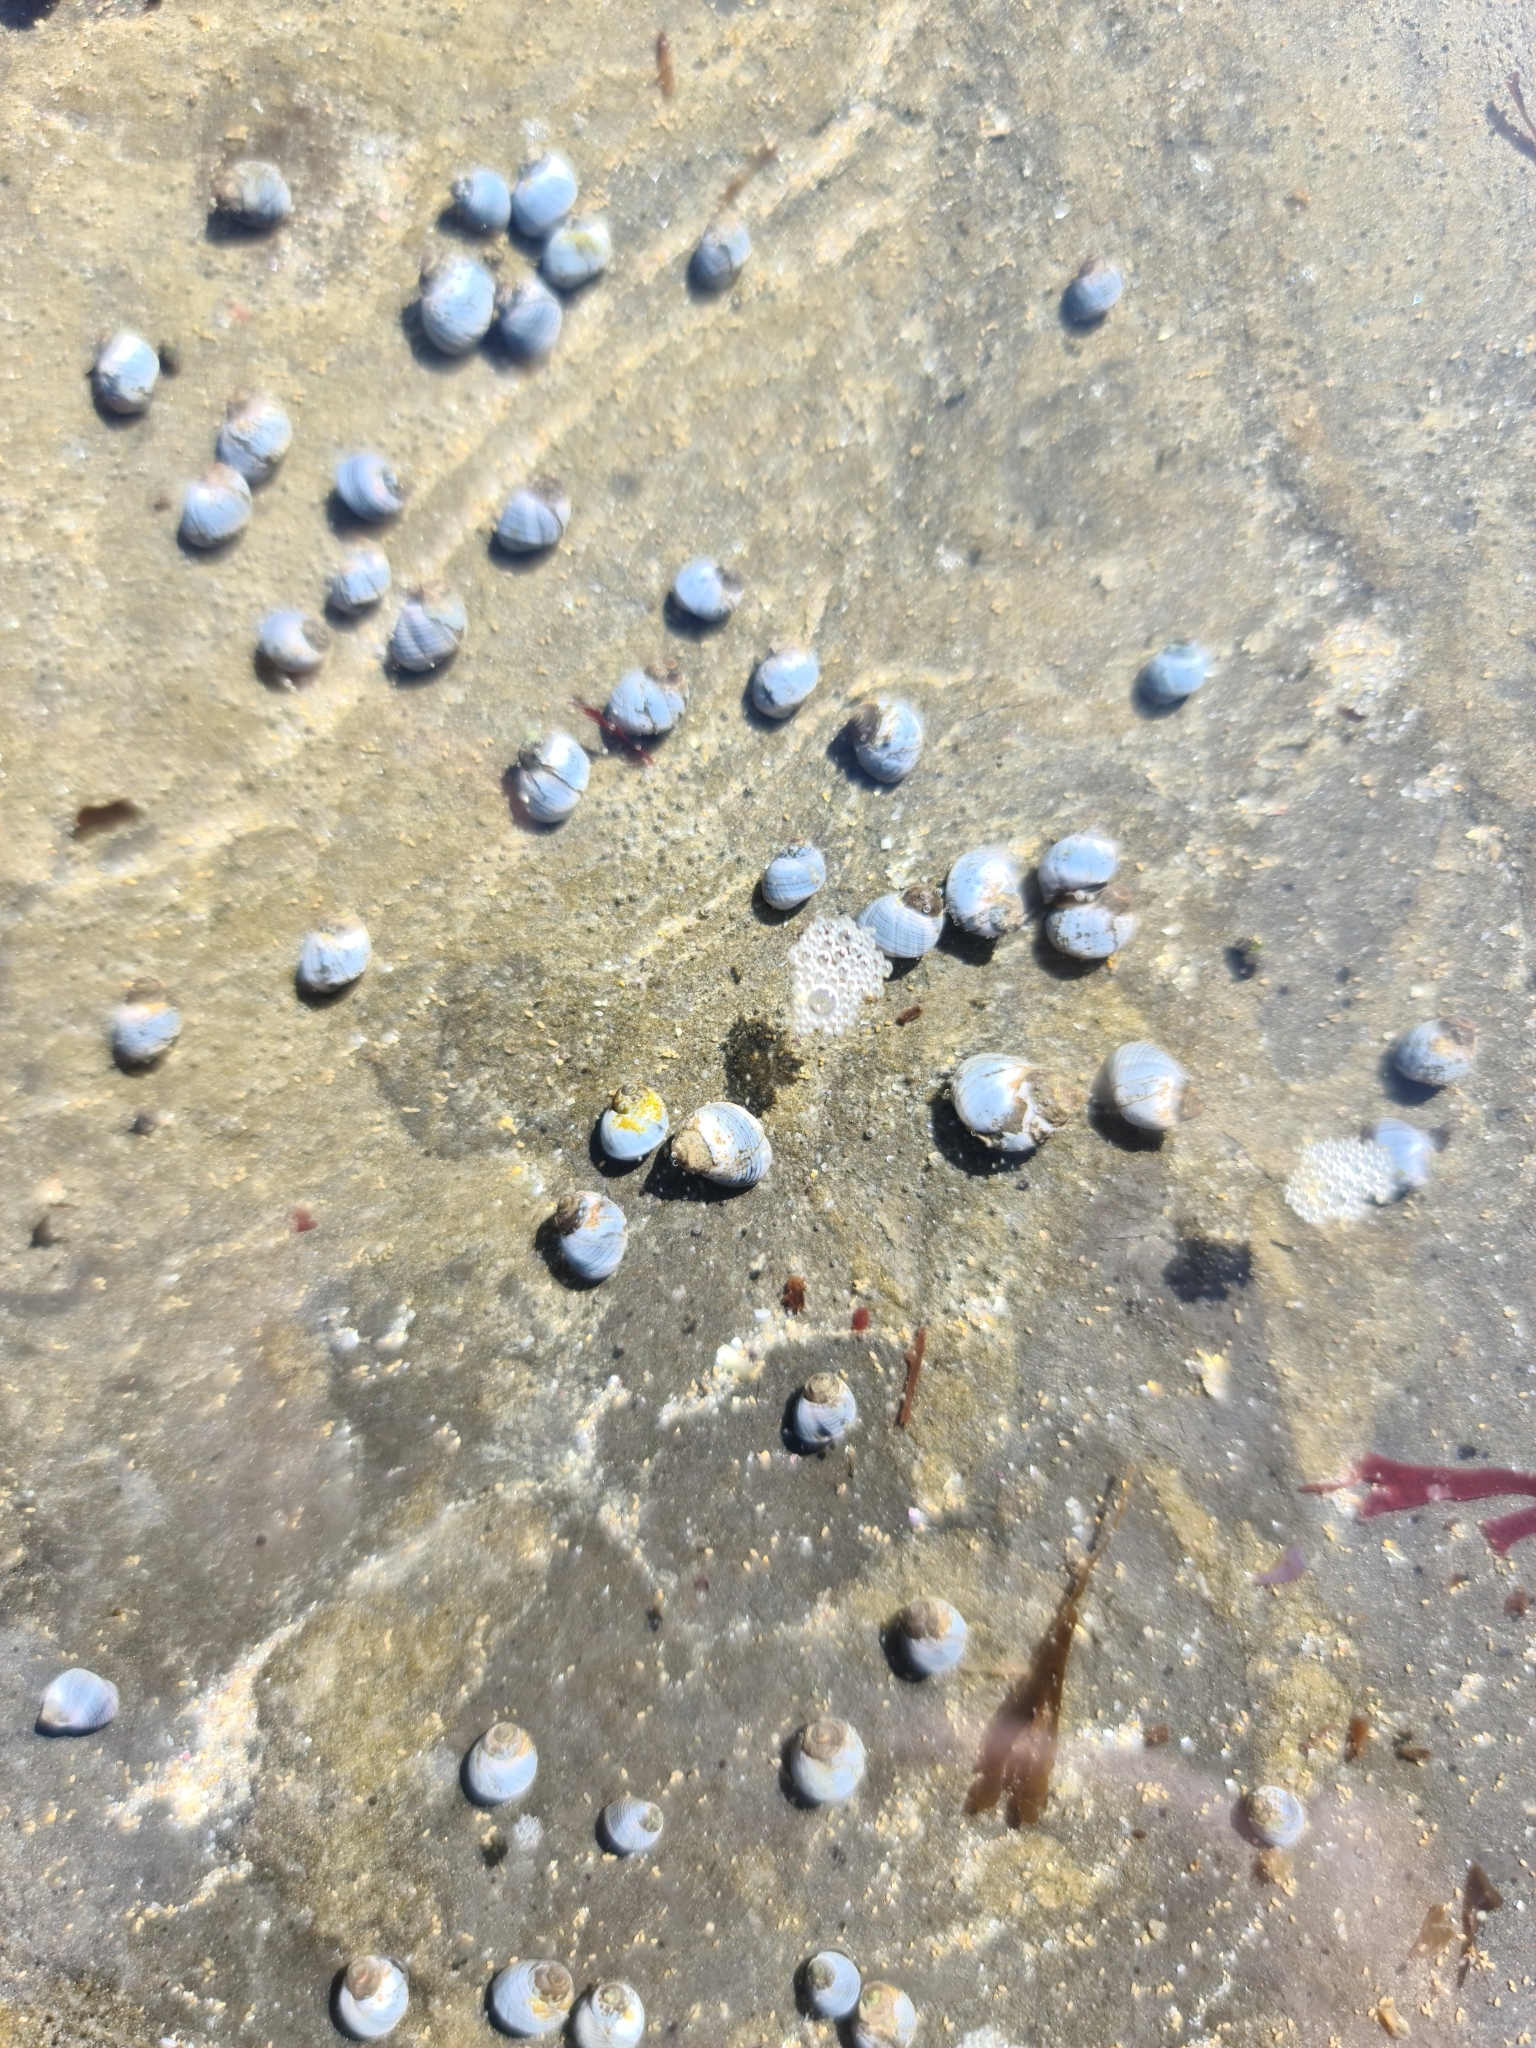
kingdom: Animalia
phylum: Mollusca
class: Gastropoda
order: Littorinimorpha
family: Littorinidae
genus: Austrolittorina
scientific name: Austrolittorina unifasciata
